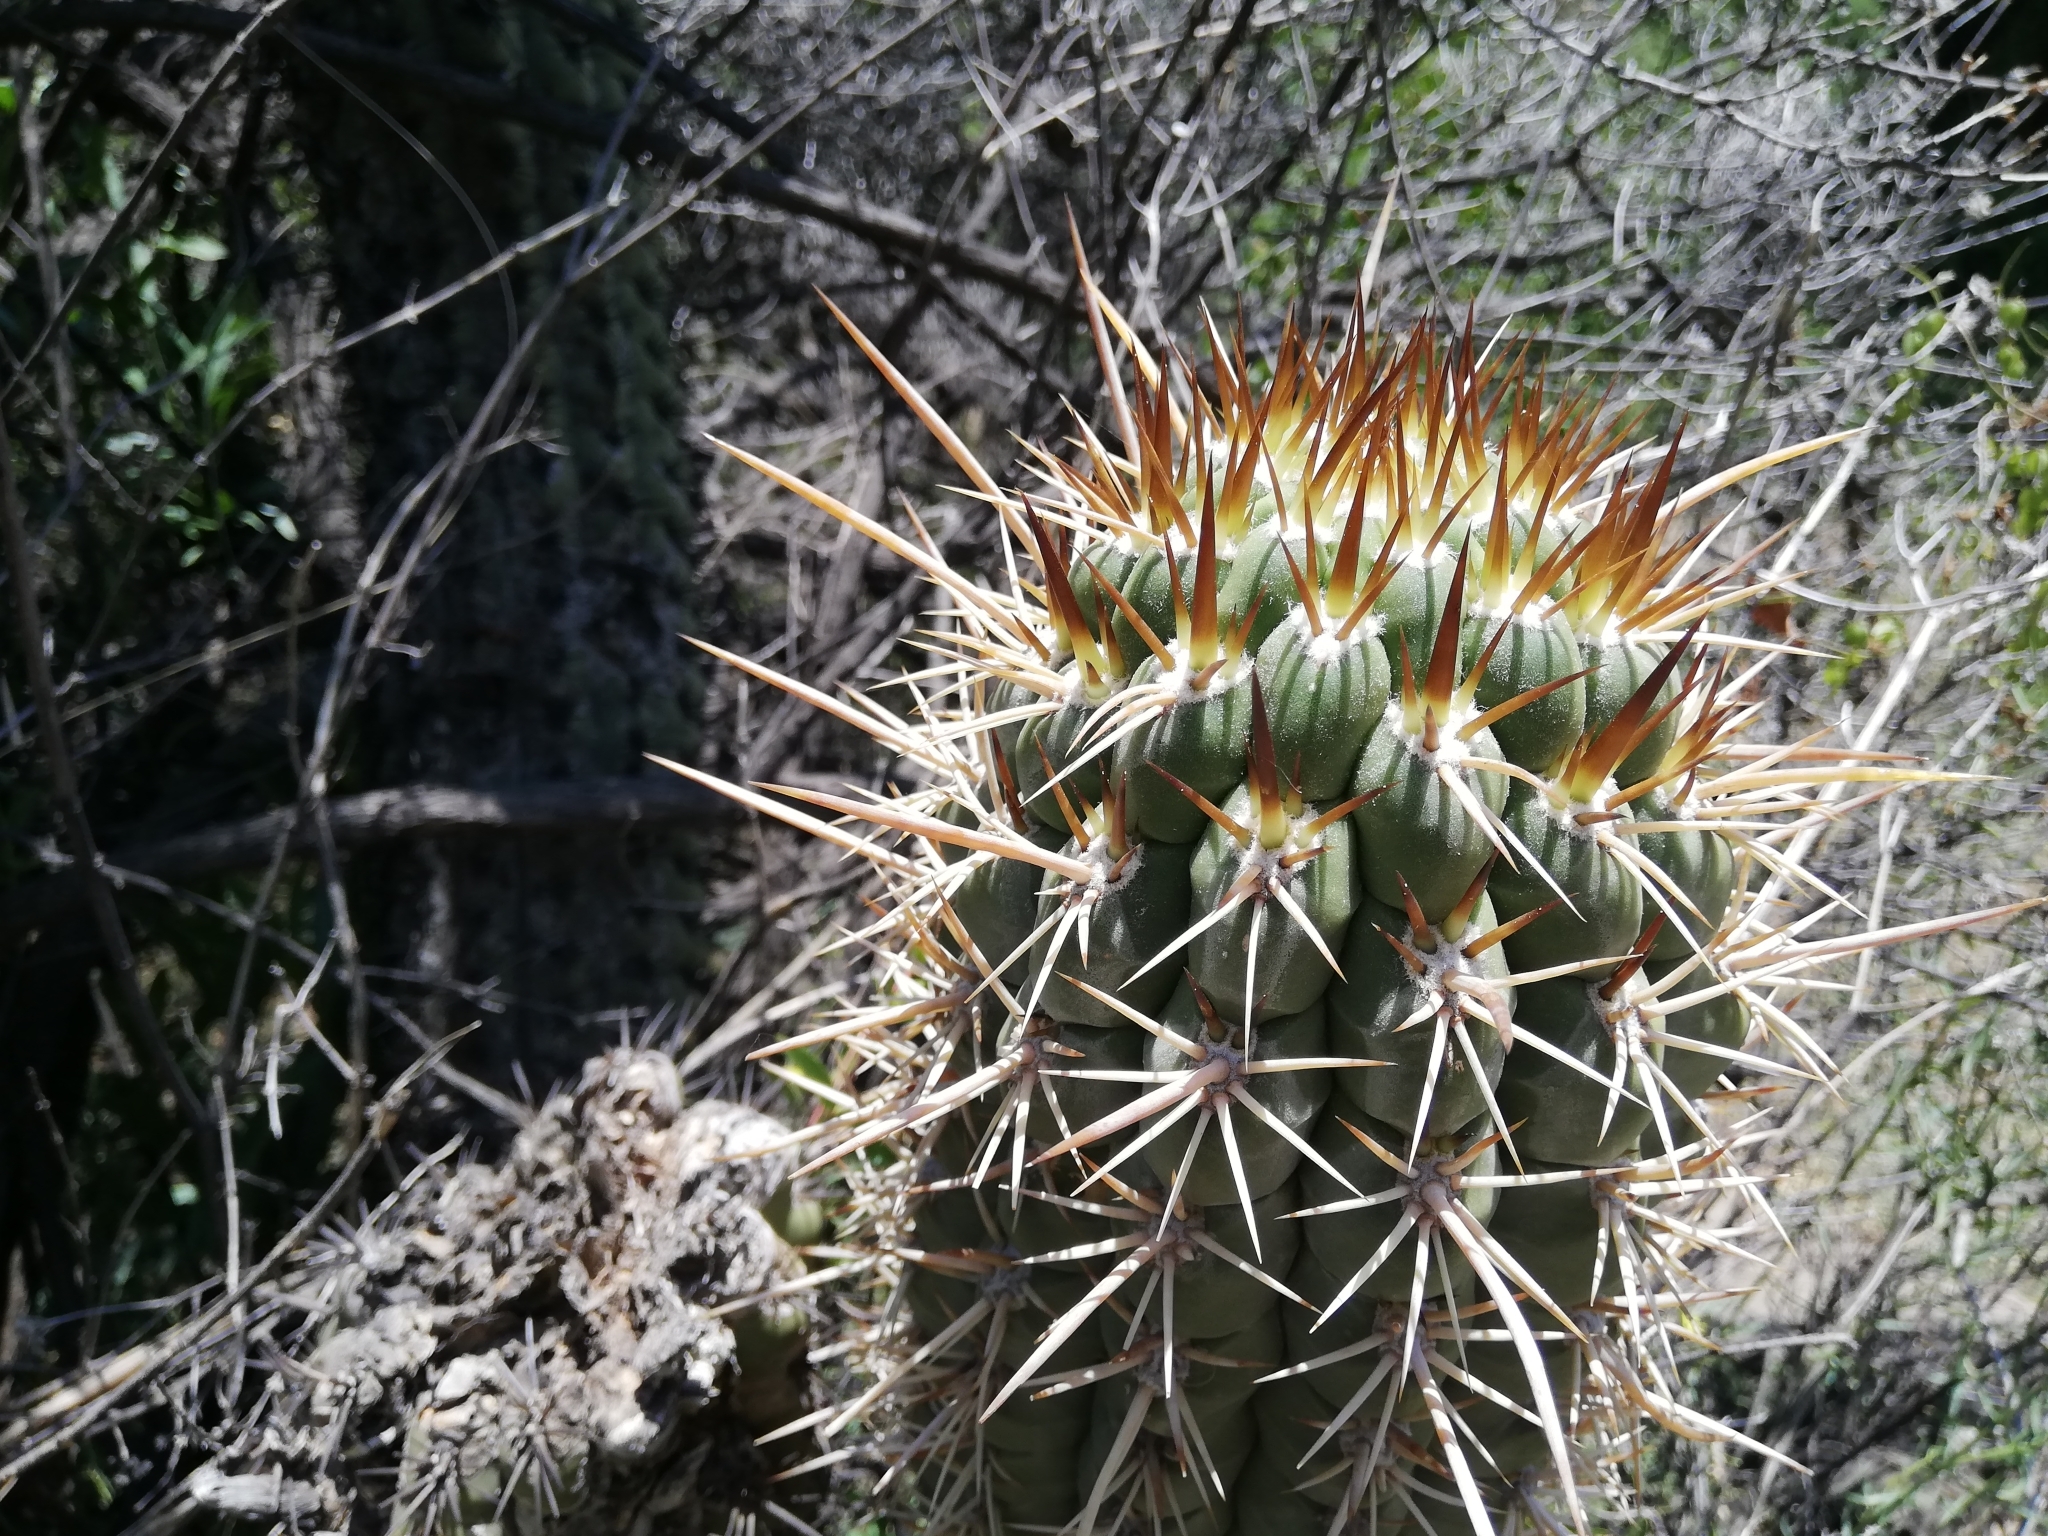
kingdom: Plantae
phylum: Tracheophyta
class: Magnoliopsida
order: Caryophyllales
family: Cactaceae
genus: Leucostele
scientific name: Leucostele chiloensis
